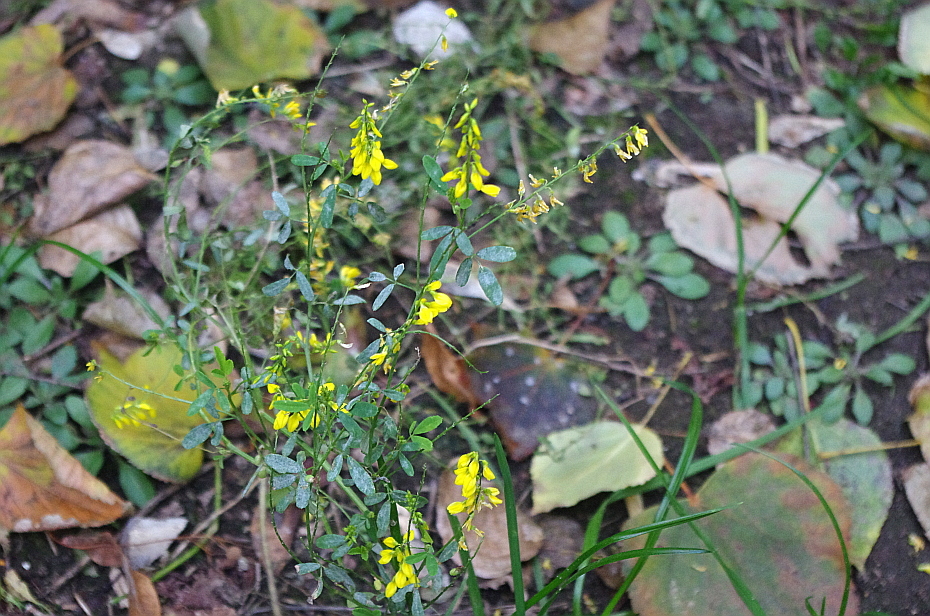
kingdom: Plantae
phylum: Tracheophyta
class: Magnoliopsida
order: Fabales
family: Fabaceae
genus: Melilotus
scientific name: Melilotus officinalis
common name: Sweetclover
